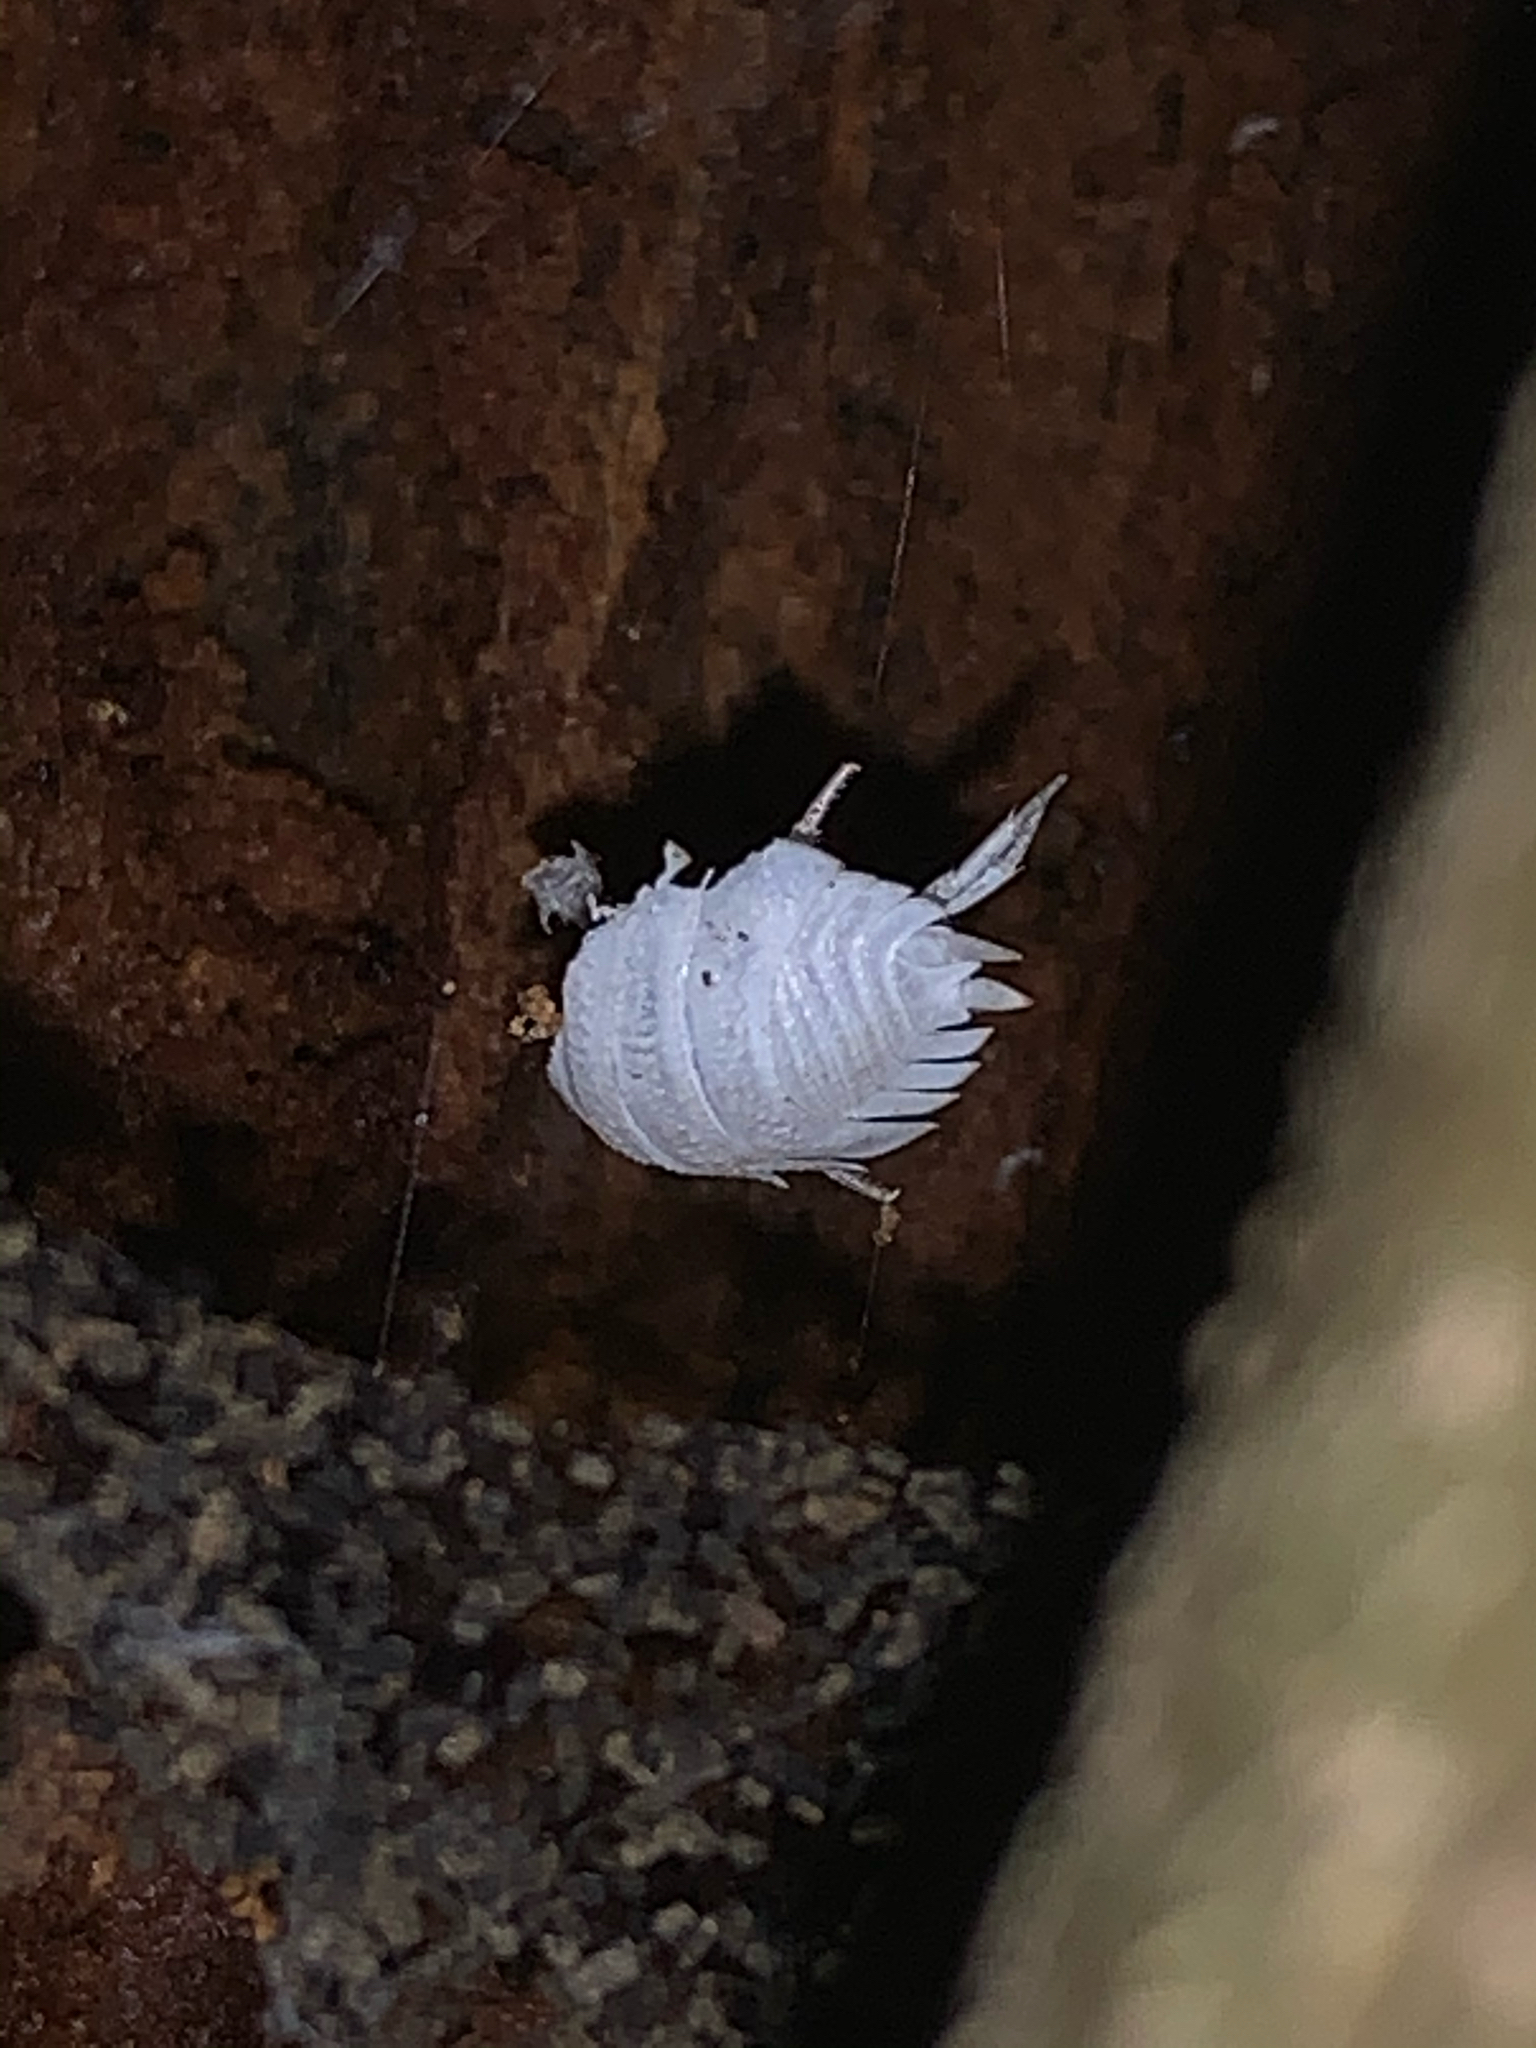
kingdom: Animalia
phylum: Arthropoda
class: Malacostraca
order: Isopoda
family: Porcellionidae
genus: Porcellio
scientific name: Porcellio scaber
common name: Common rough woodlouse
